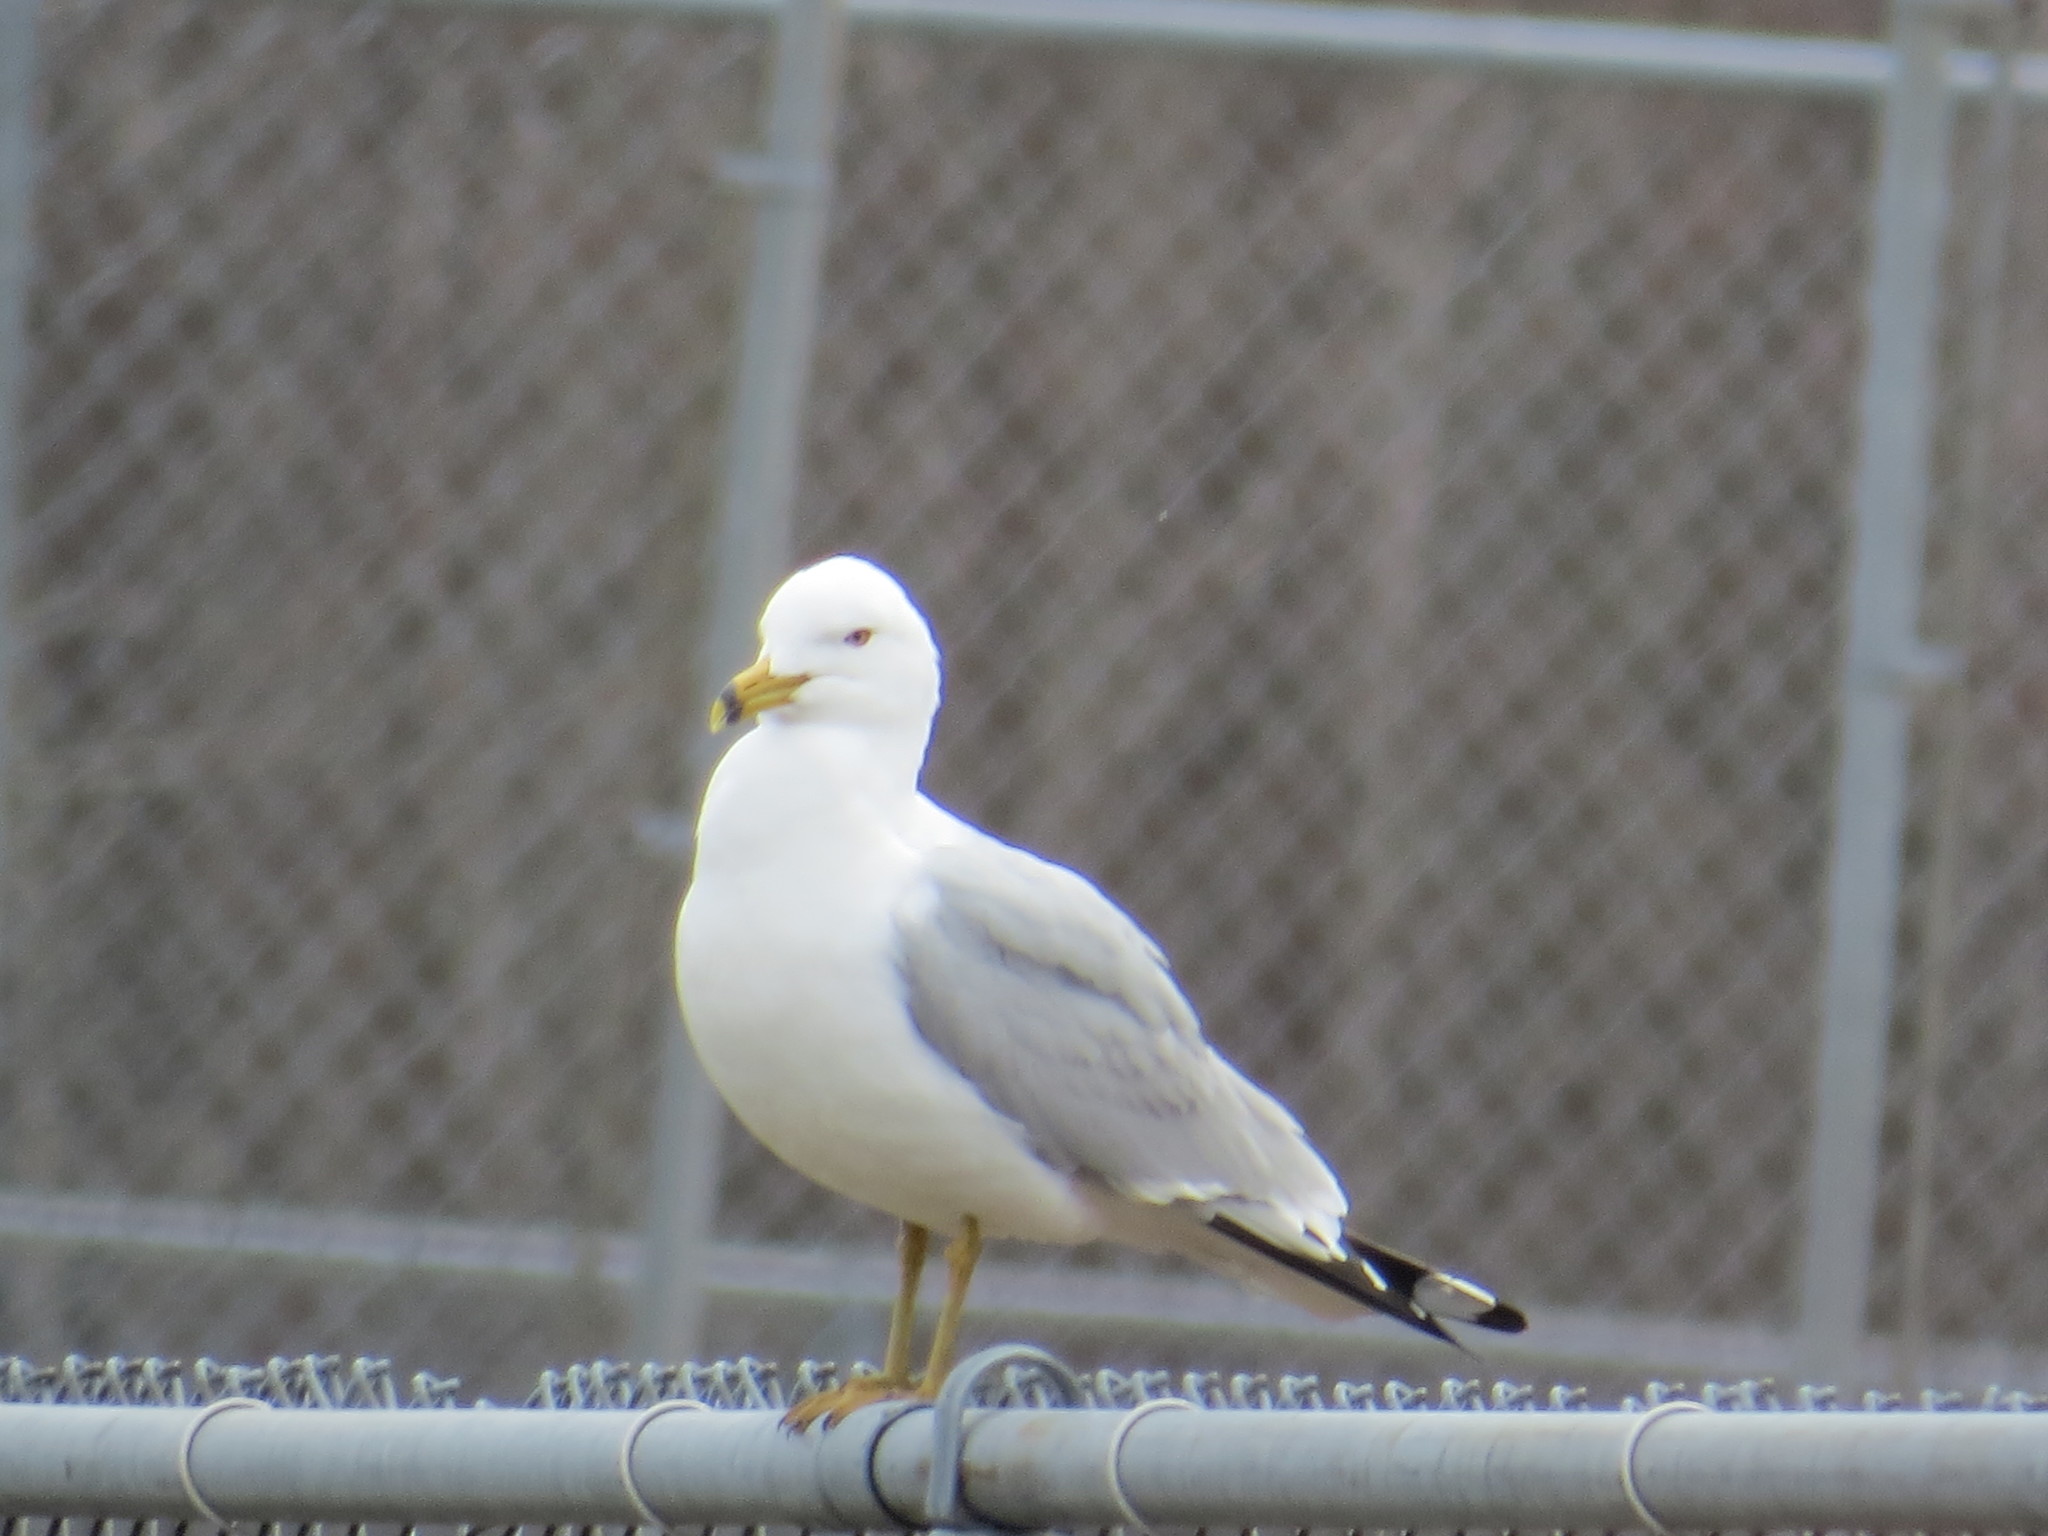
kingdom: Animalia
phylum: Chordata
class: Aves
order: Charadriiformes
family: Laridae
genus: Larus
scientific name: Larus delawarensis
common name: Ring-billed gull
